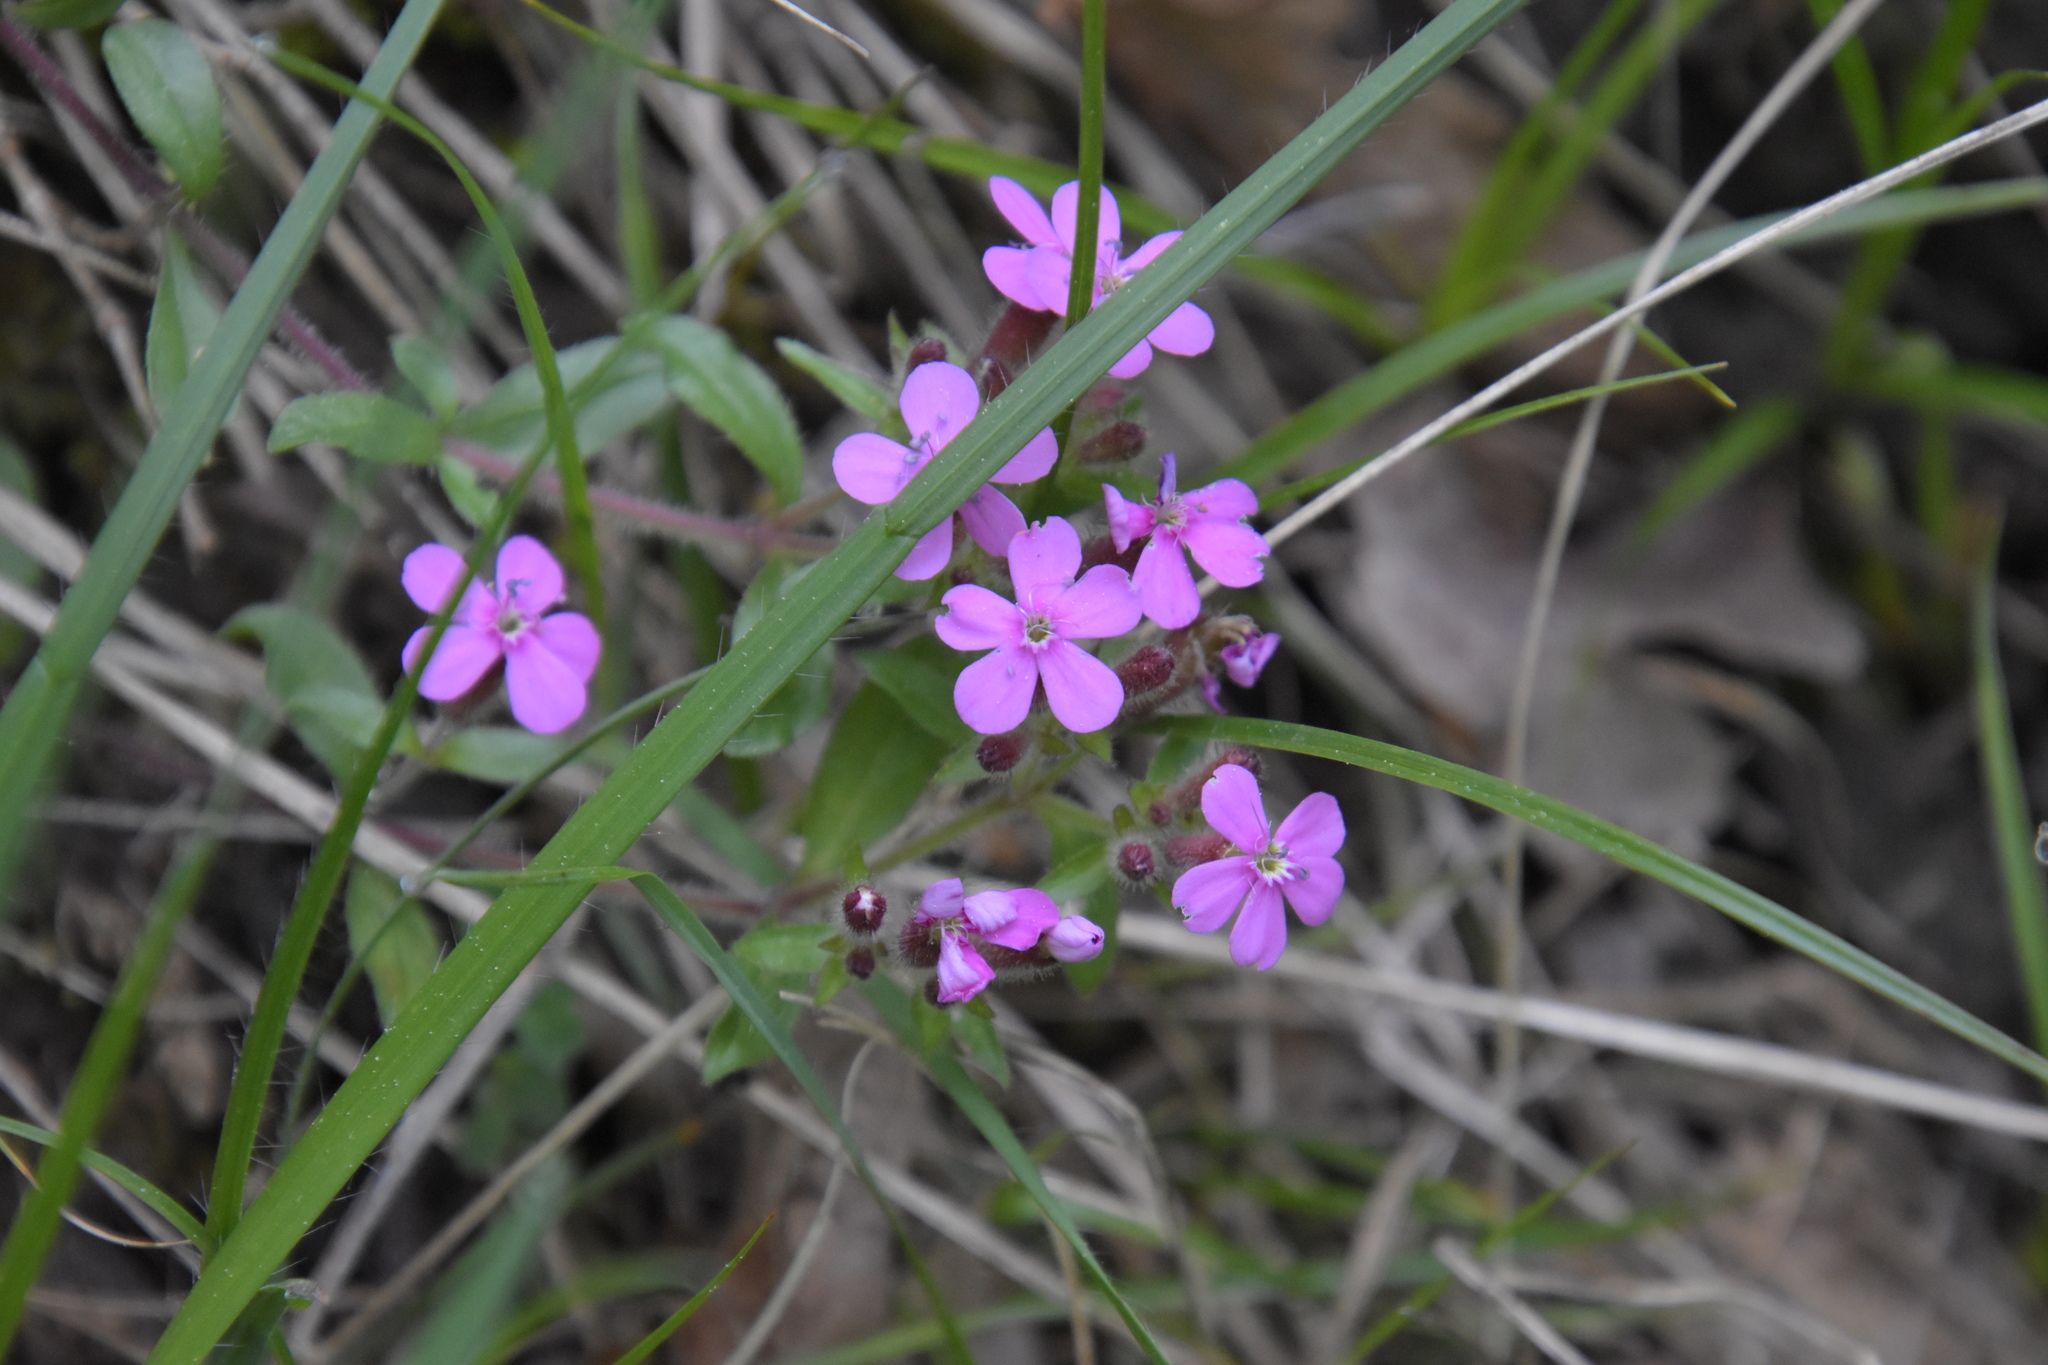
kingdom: Plantae
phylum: Tracheophyta
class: Magnoliopsida
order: Caryophyllales
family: Caryophyllaceae
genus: Saponaria
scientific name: Saponaria ocymoides
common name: Rock soapwort
